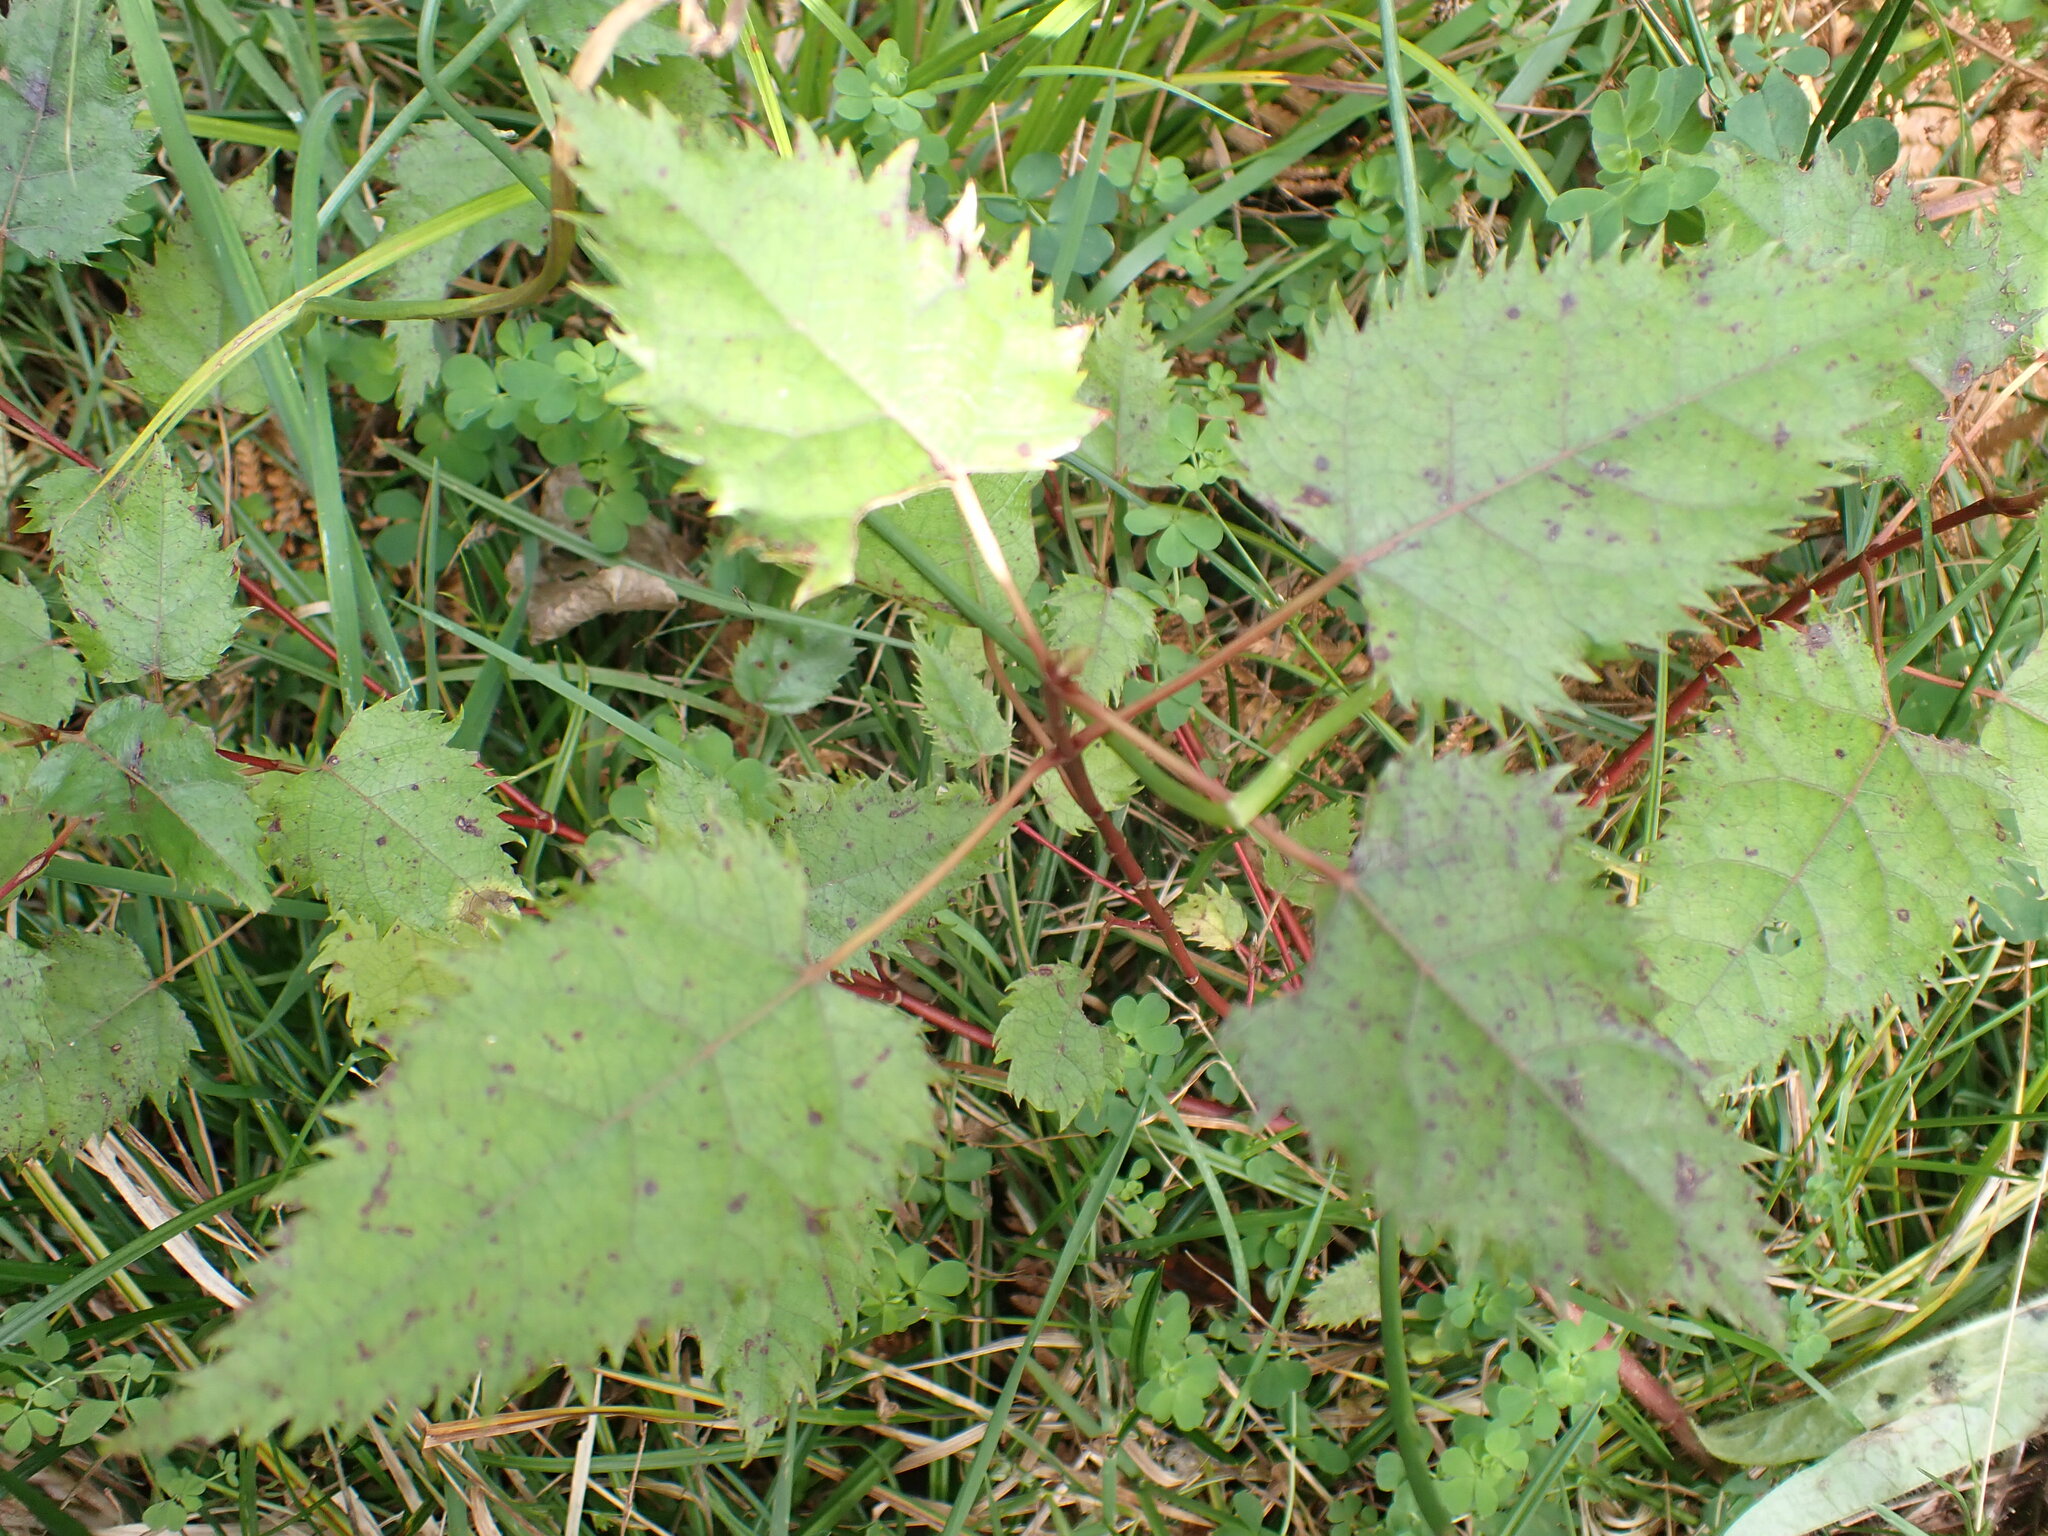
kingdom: Plantae
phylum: Tracheophyta
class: Magnoliopsida
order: Oxalidales
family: Elaeocarpaceae
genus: Aristotelia
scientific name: Aristotelia serrata
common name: New zealand wineberry
